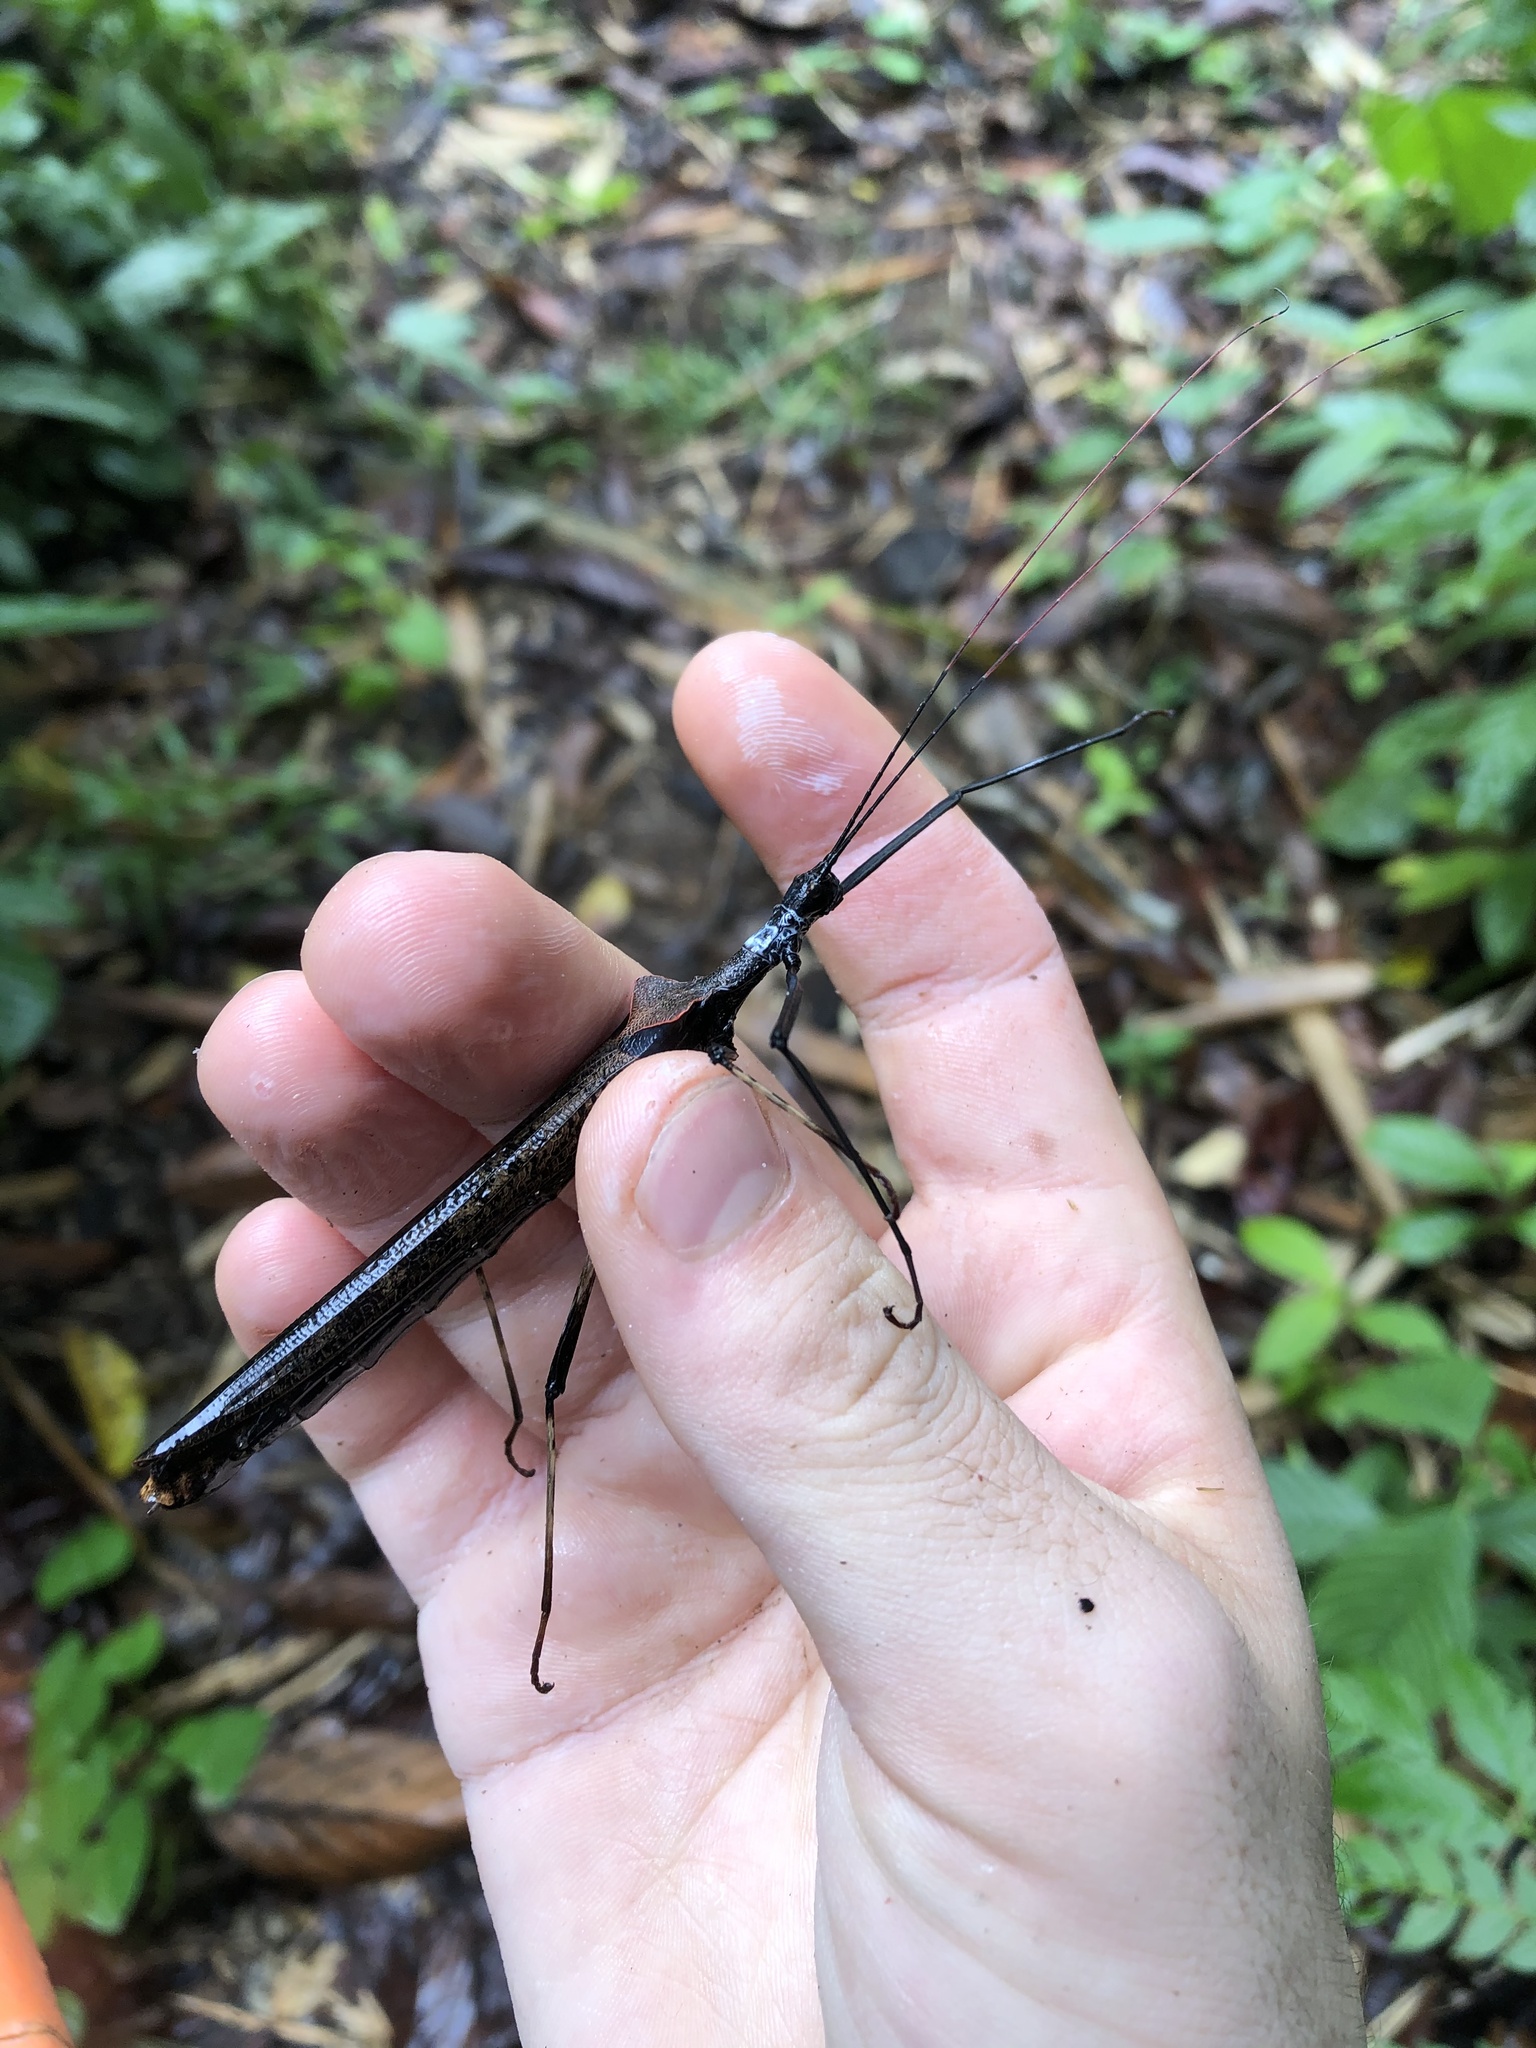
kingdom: Animalia
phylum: Arthropoda
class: Insecta
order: Phasmida
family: Pseudophasmatidae
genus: Pseudophasma
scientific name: Pseudophasma bolivari
